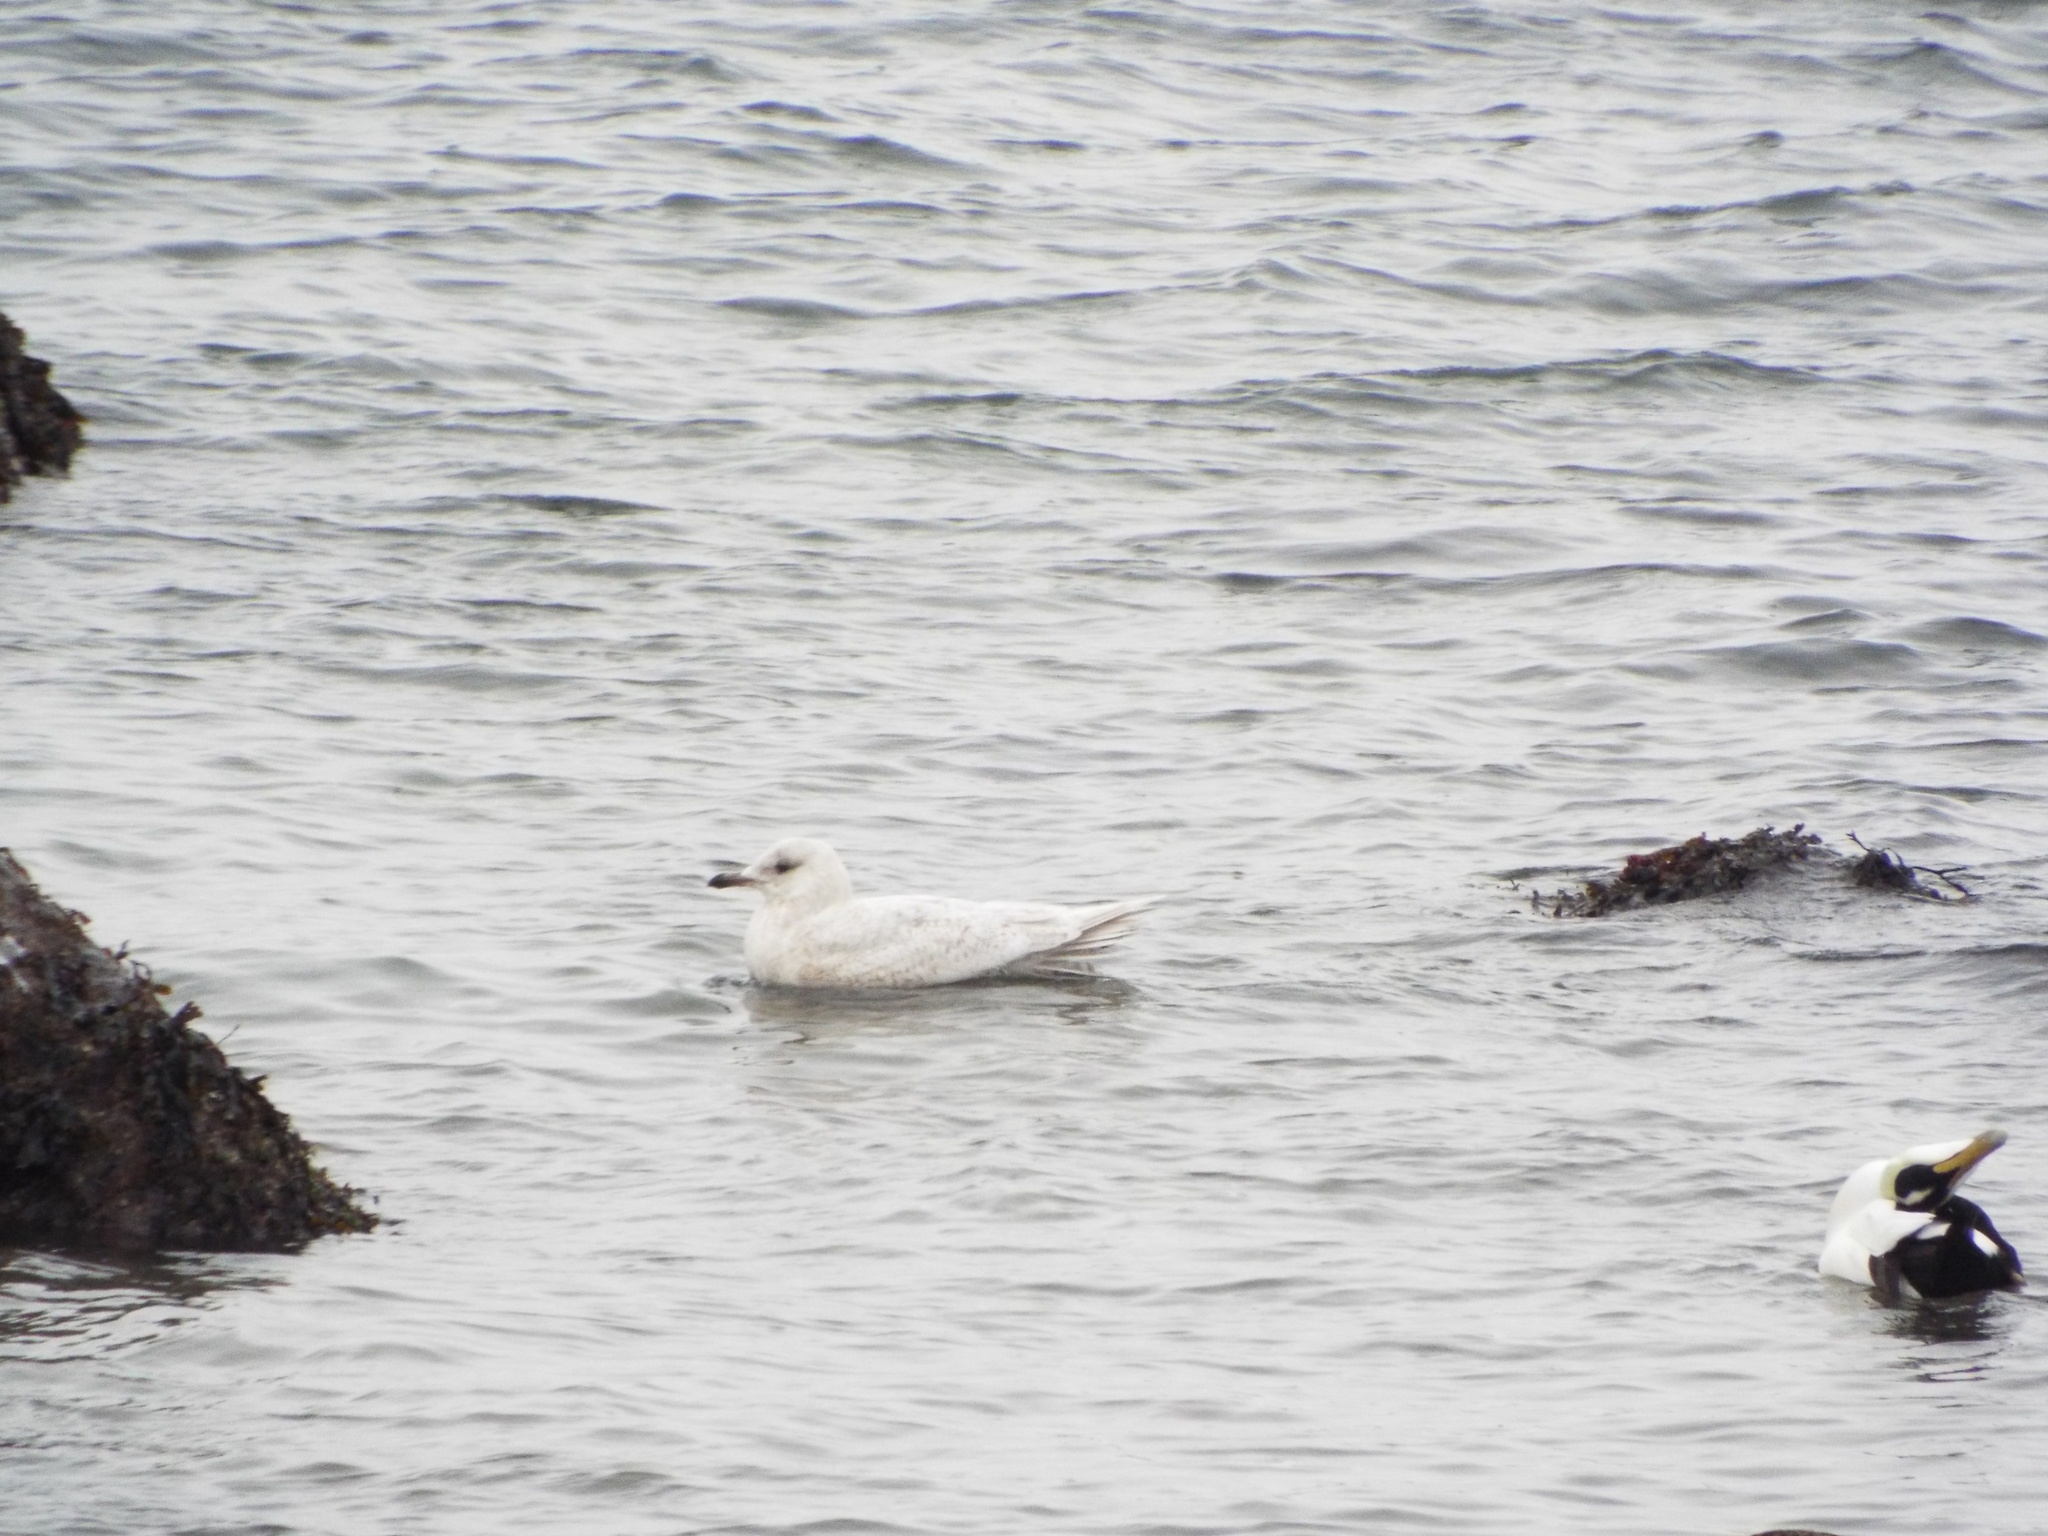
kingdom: Animalia
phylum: Chordata
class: Aves
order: Charadriiformes
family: Laridae
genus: Larus
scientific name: Larus glaucoides
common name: Iceland gull
